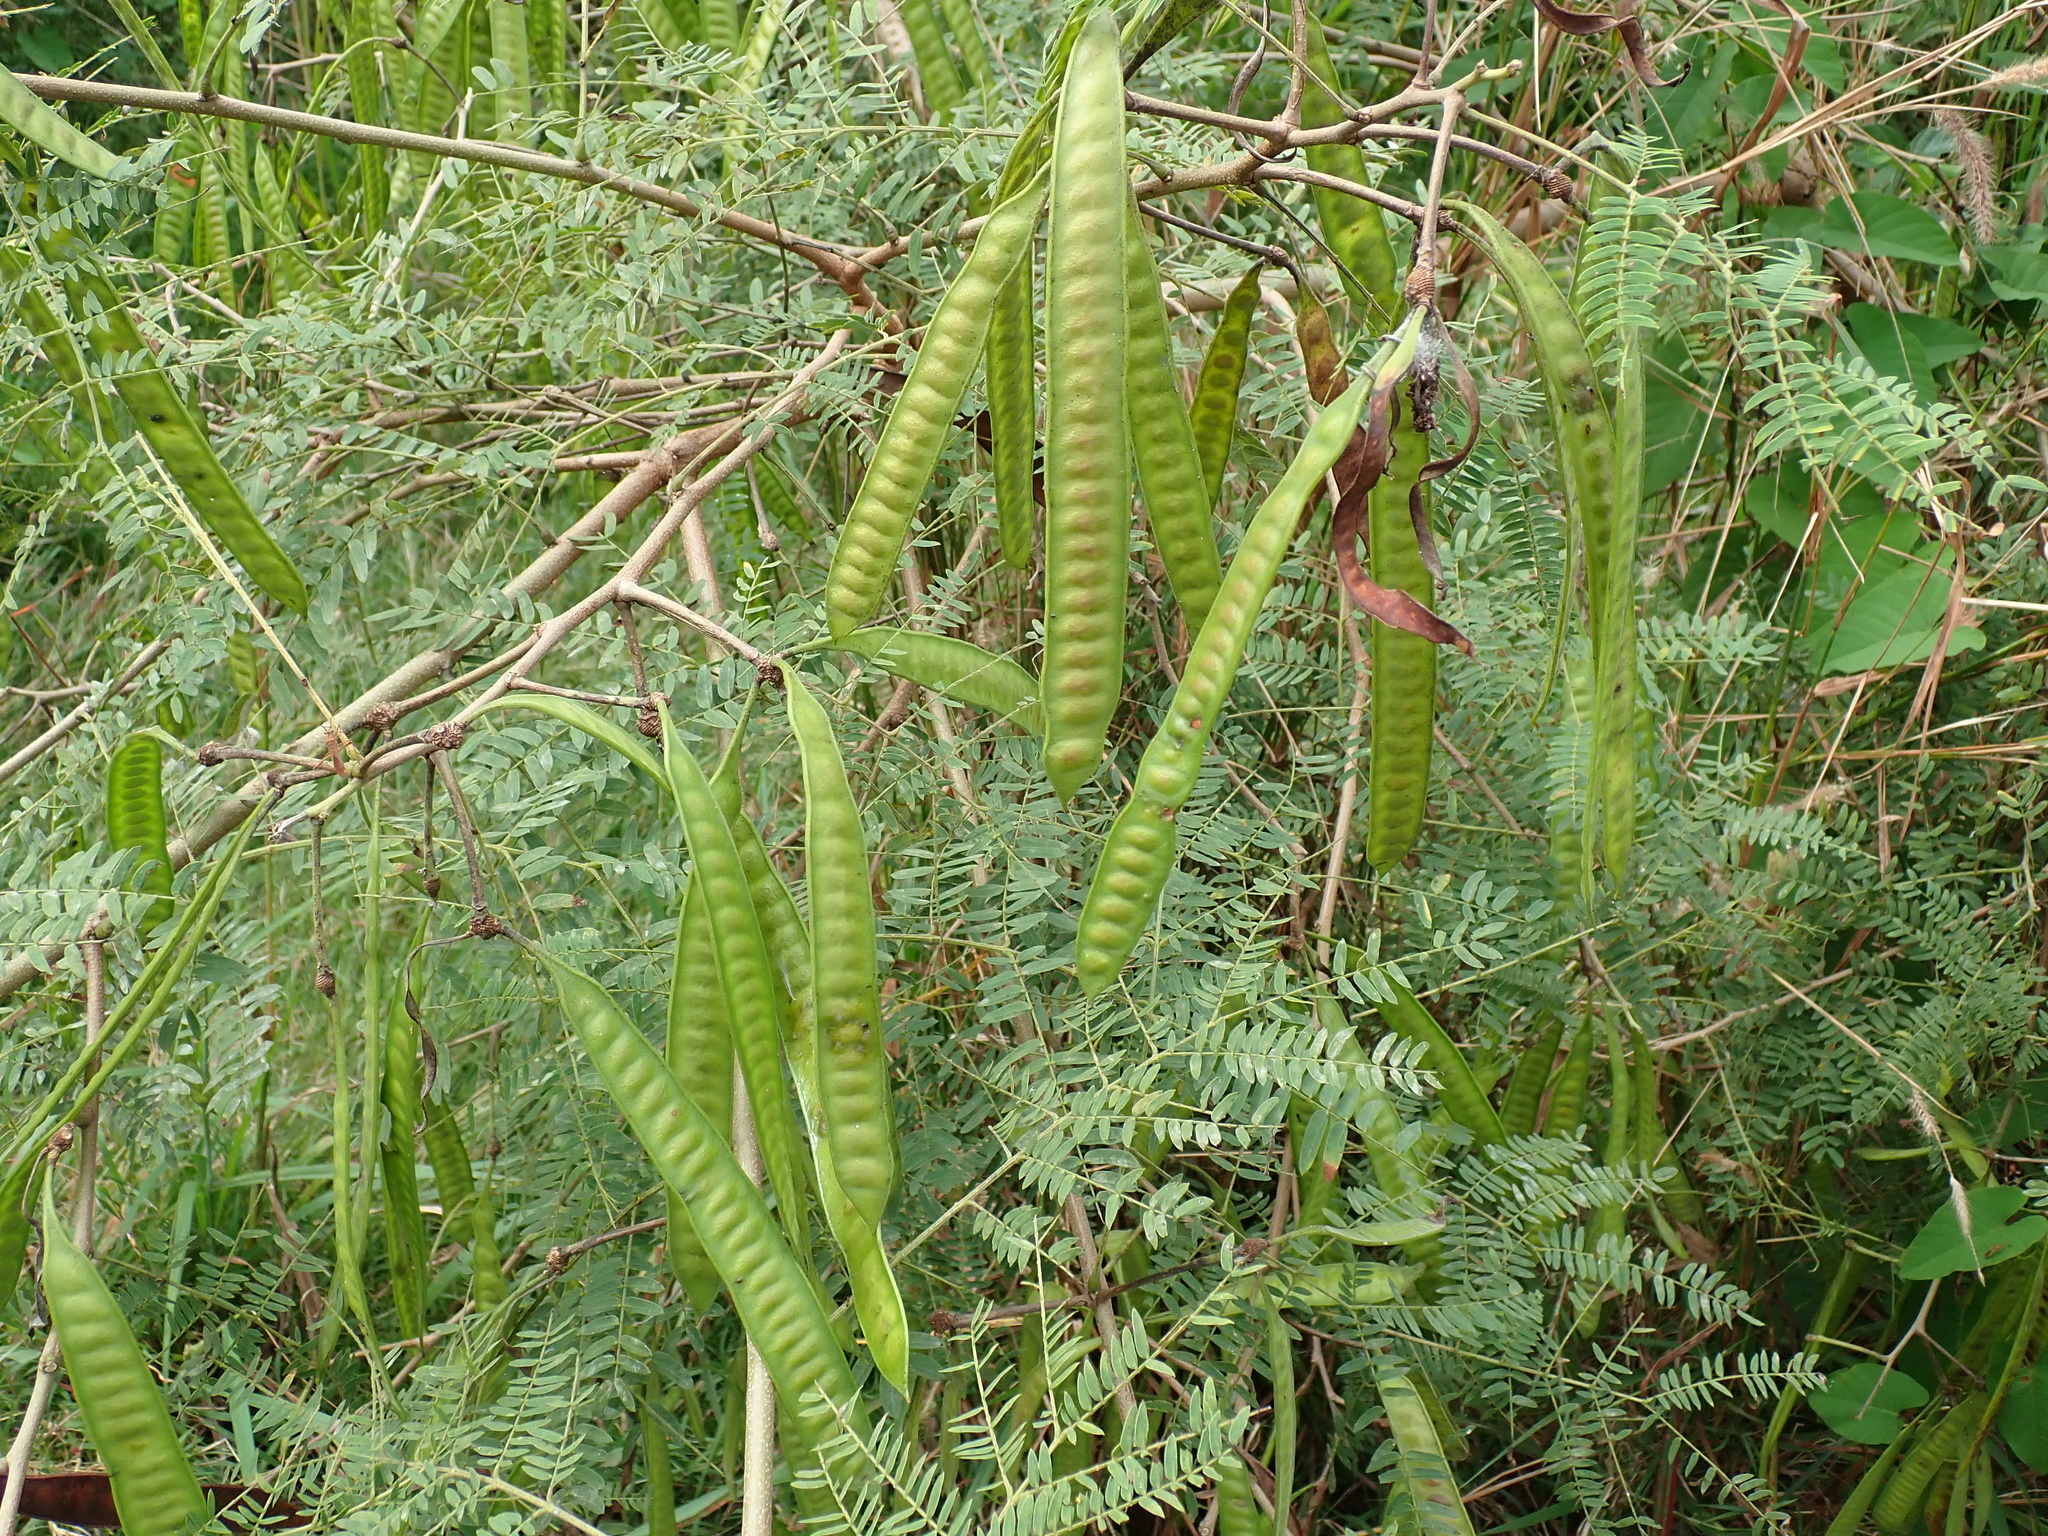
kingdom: Plantae
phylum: Tracheophyta
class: Magnoliopsida
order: Fabales
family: Fabaceae
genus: Leucaena
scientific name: Leucaena leucocephala
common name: White leadtree
